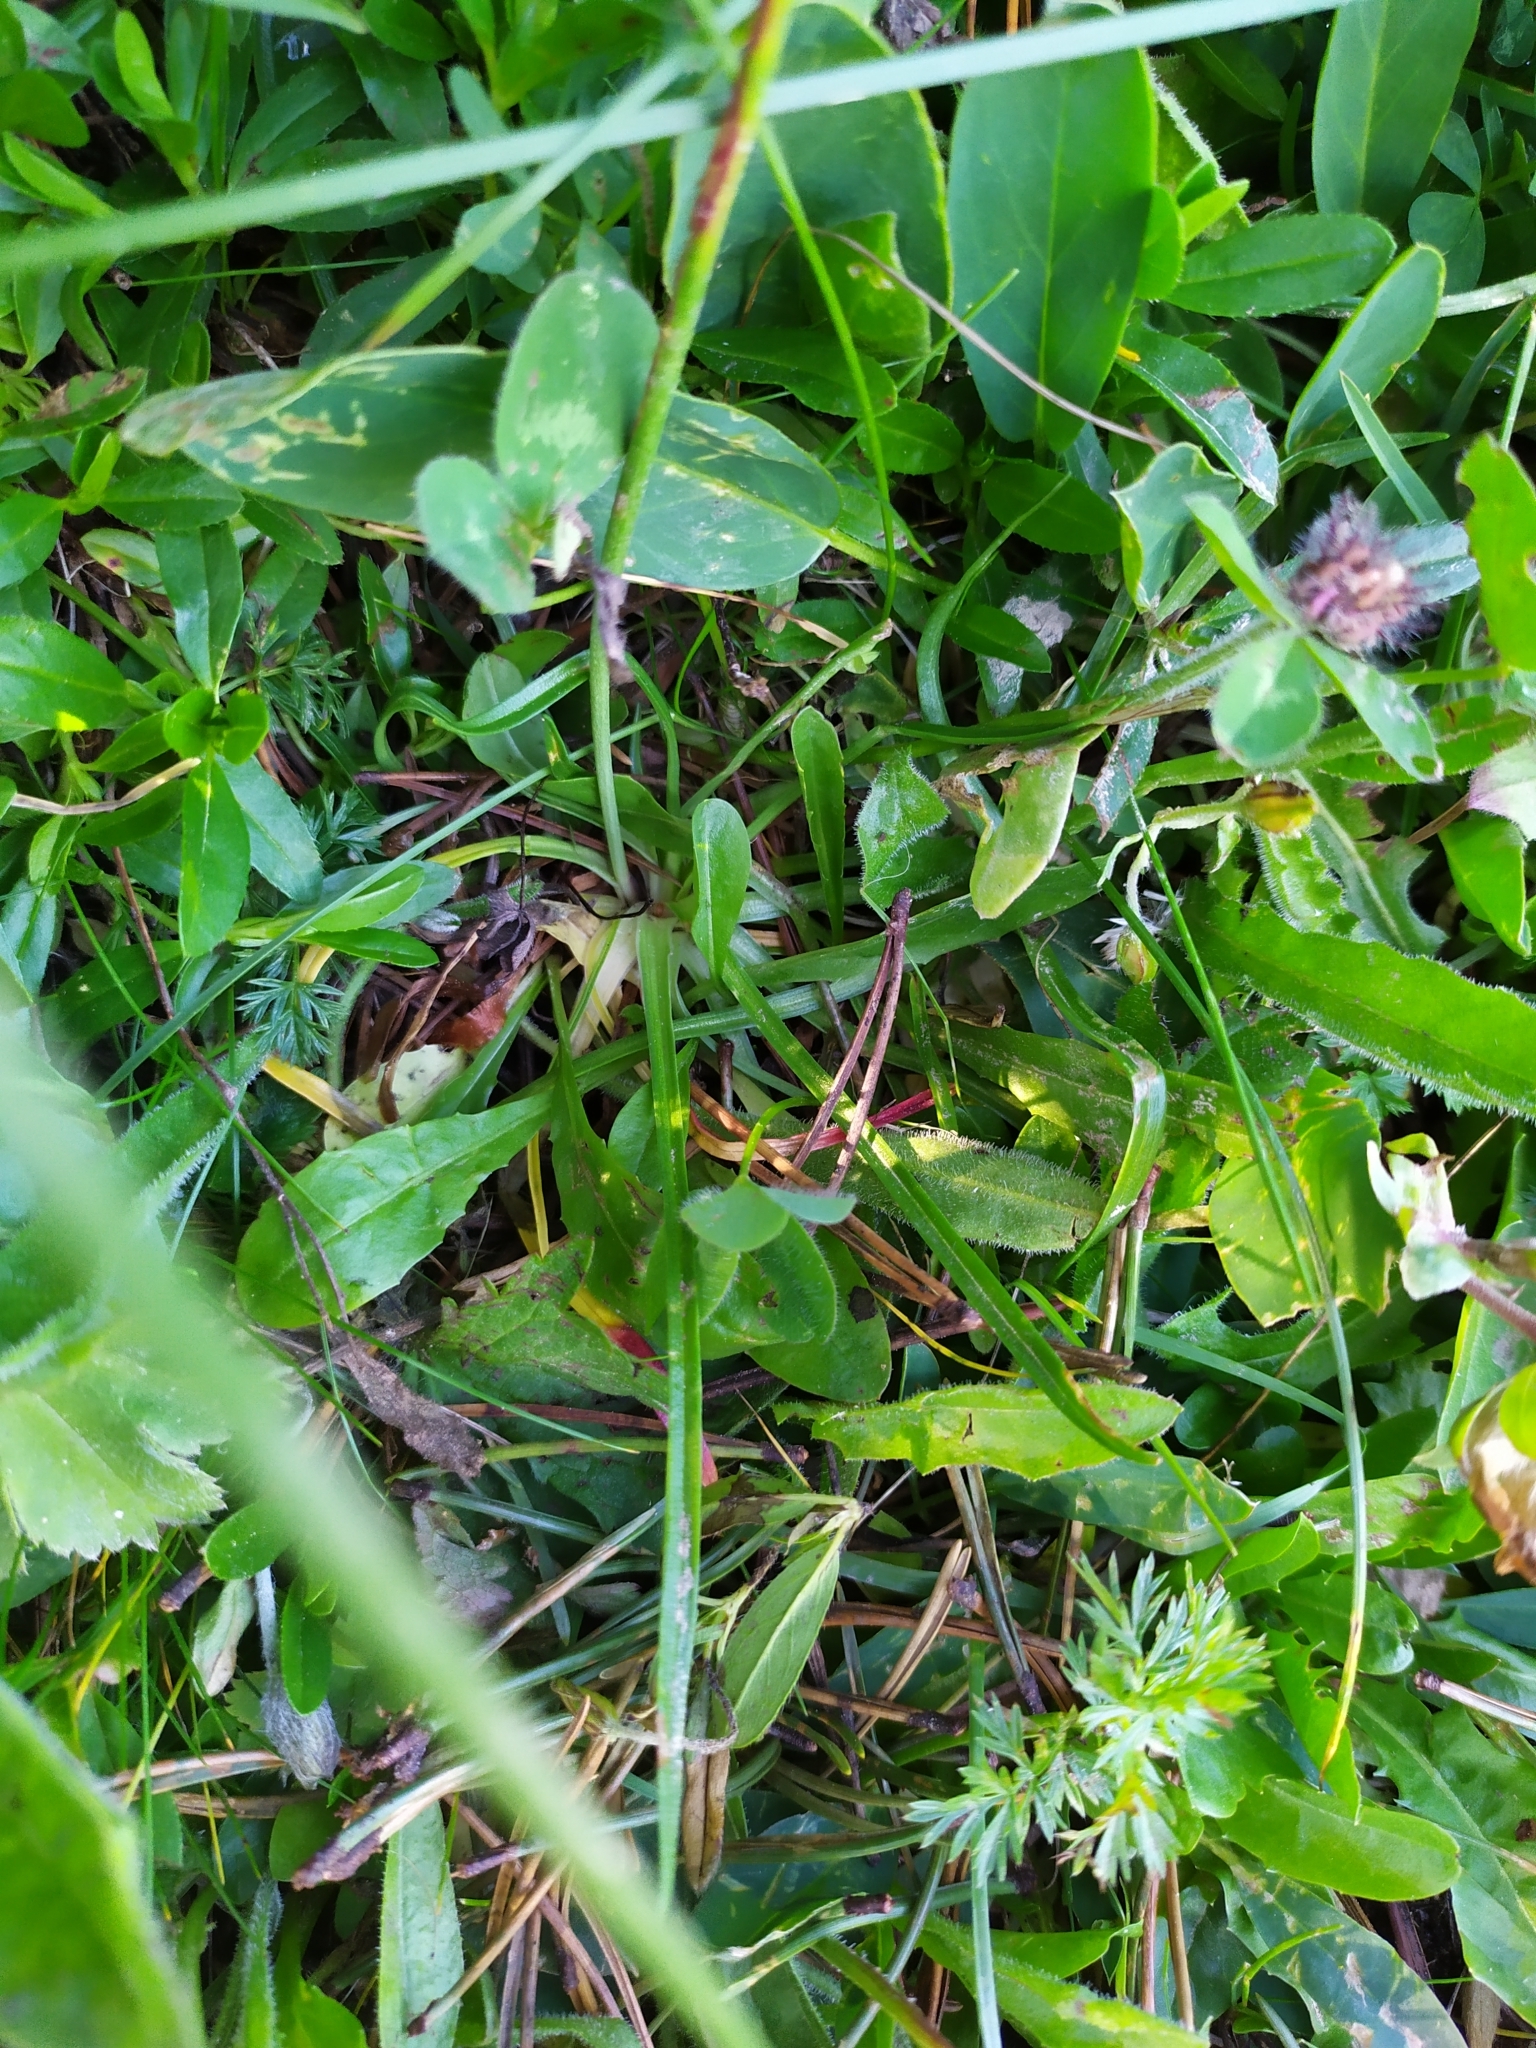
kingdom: Plantae
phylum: Tracheophyta
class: Magnoliopsida
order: Caryophyllales
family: Plumbaginaceae
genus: Armeria
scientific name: Armeria alpina
